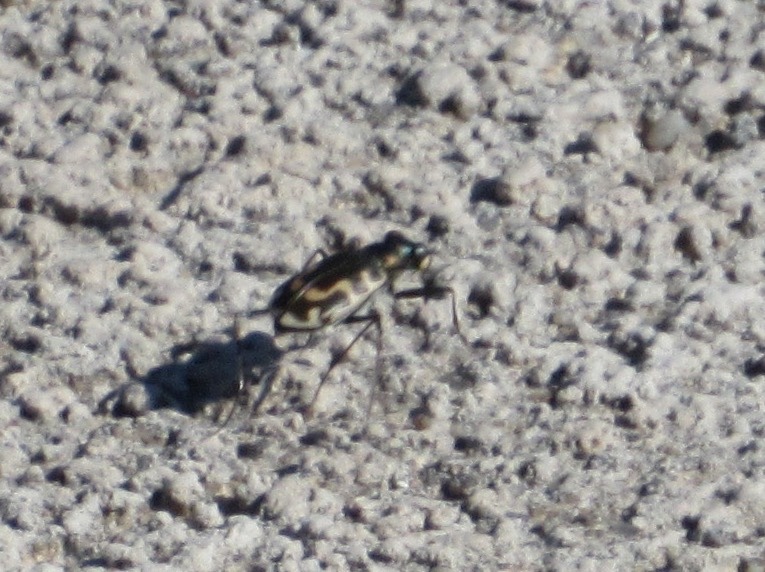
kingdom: Animalia
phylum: Arthropoda
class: Insecta
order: Coleoptera
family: Carabidae
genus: Cicindela
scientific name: Cicindela hirticollis
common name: Hairy-necked tiger beetle
